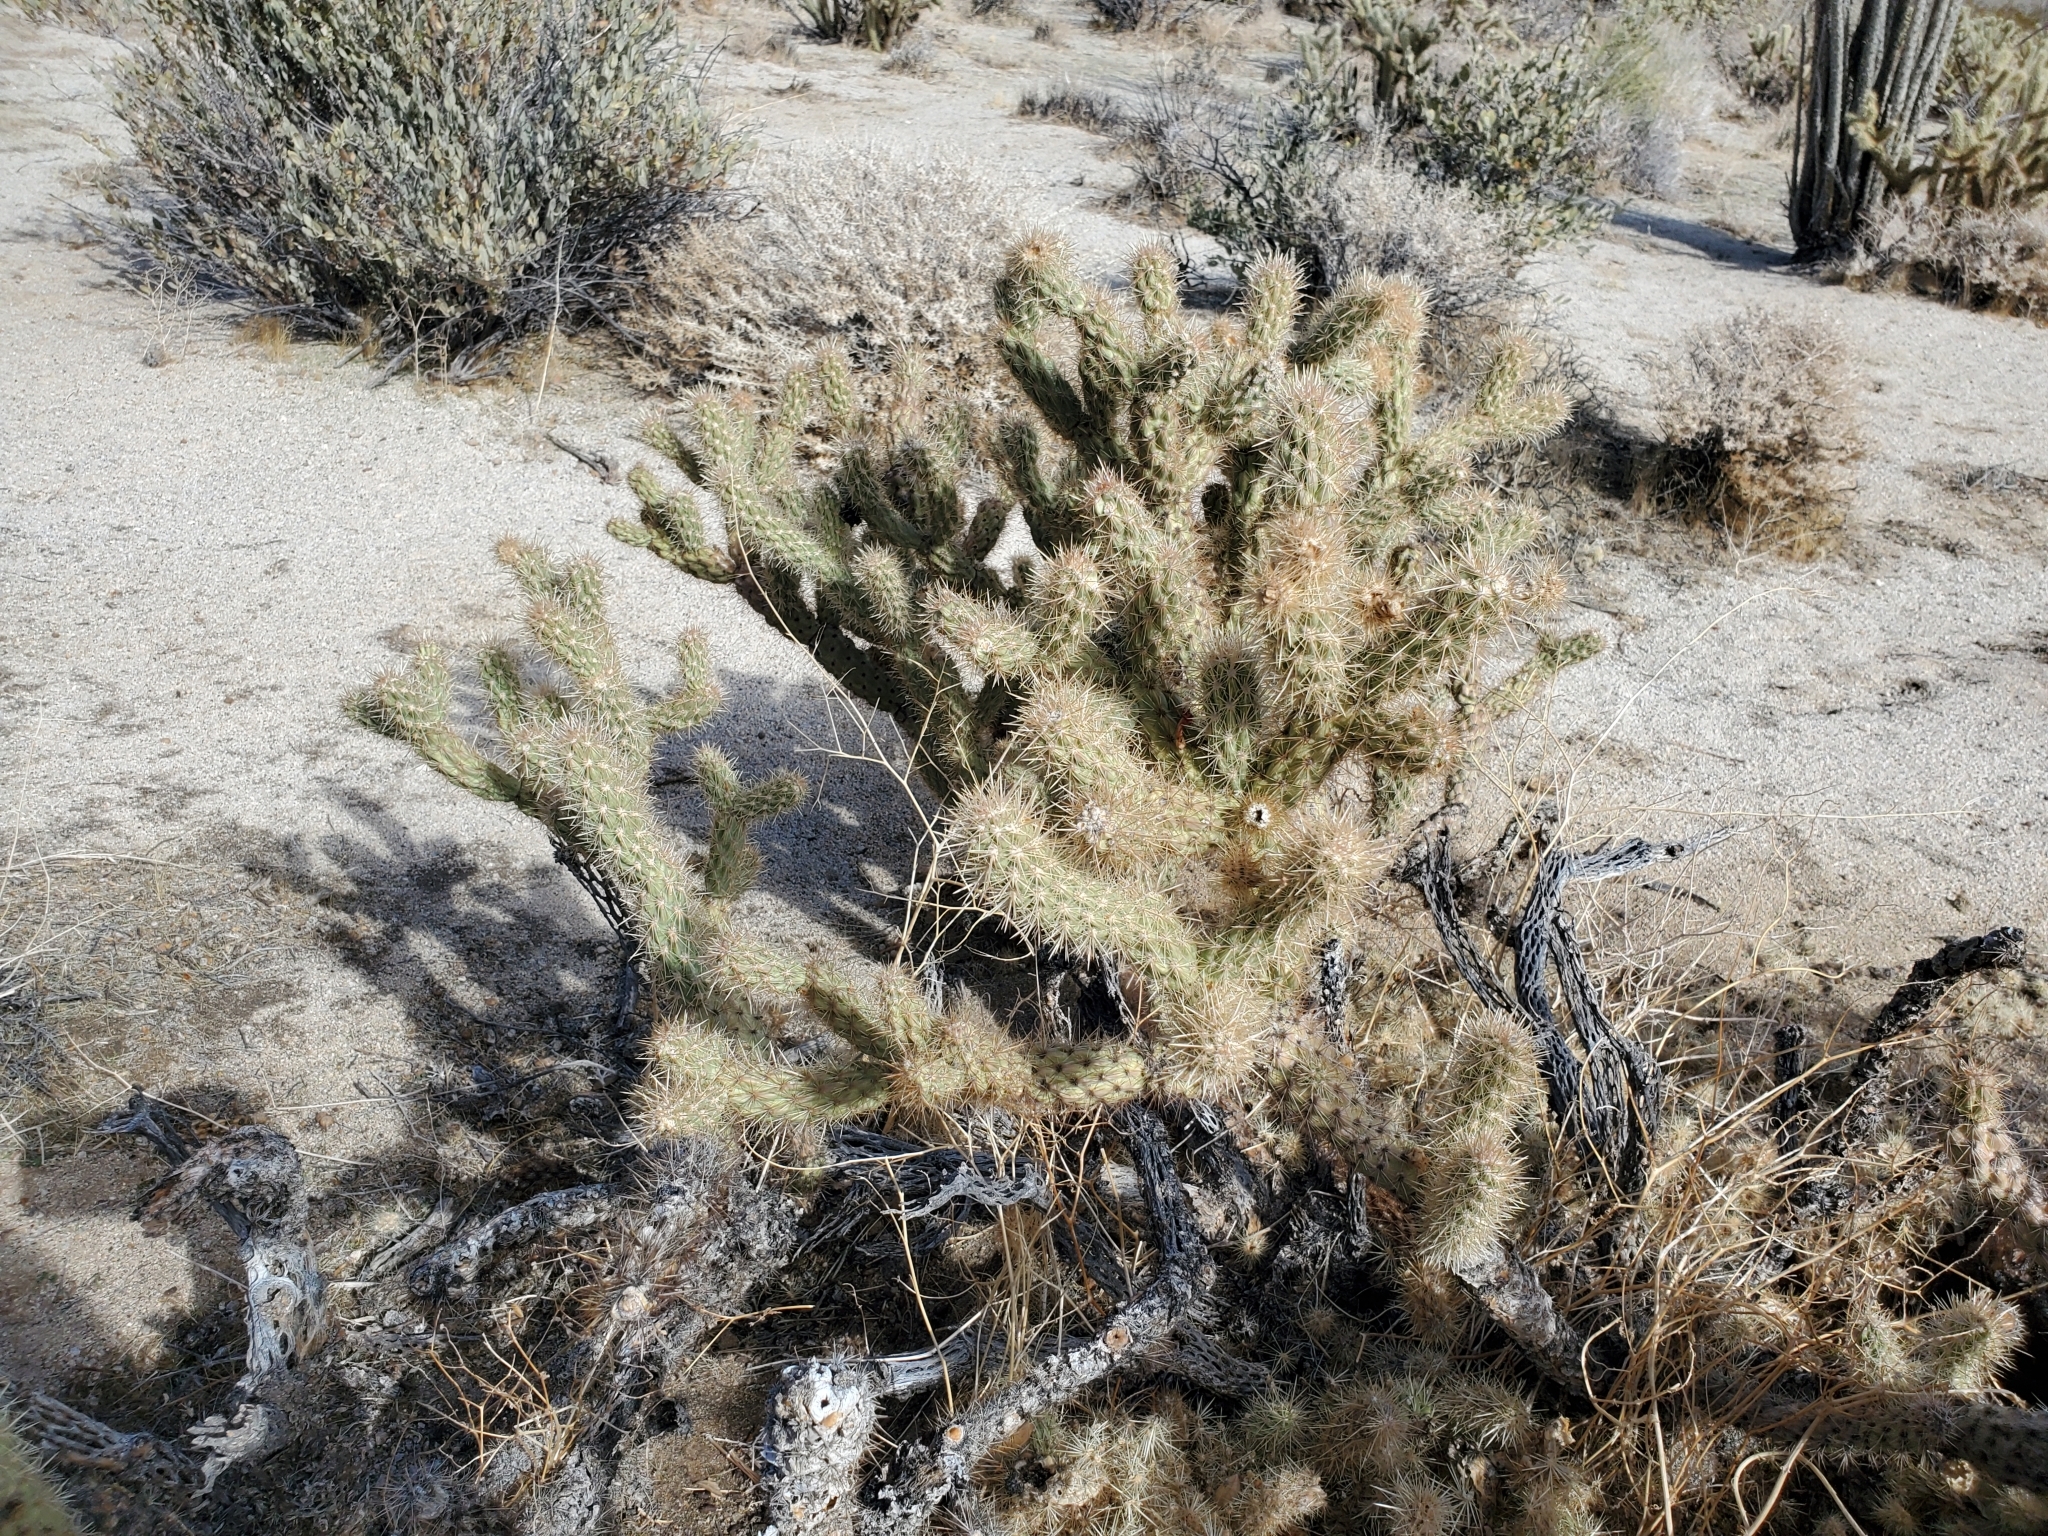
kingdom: Plantae
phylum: Tracheophyta
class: Magnoliopsida
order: Caryophyllales
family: Cactaceae
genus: Cylindropuntia
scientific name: Cylindropuntia echinocarpa
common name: Ground cholla
